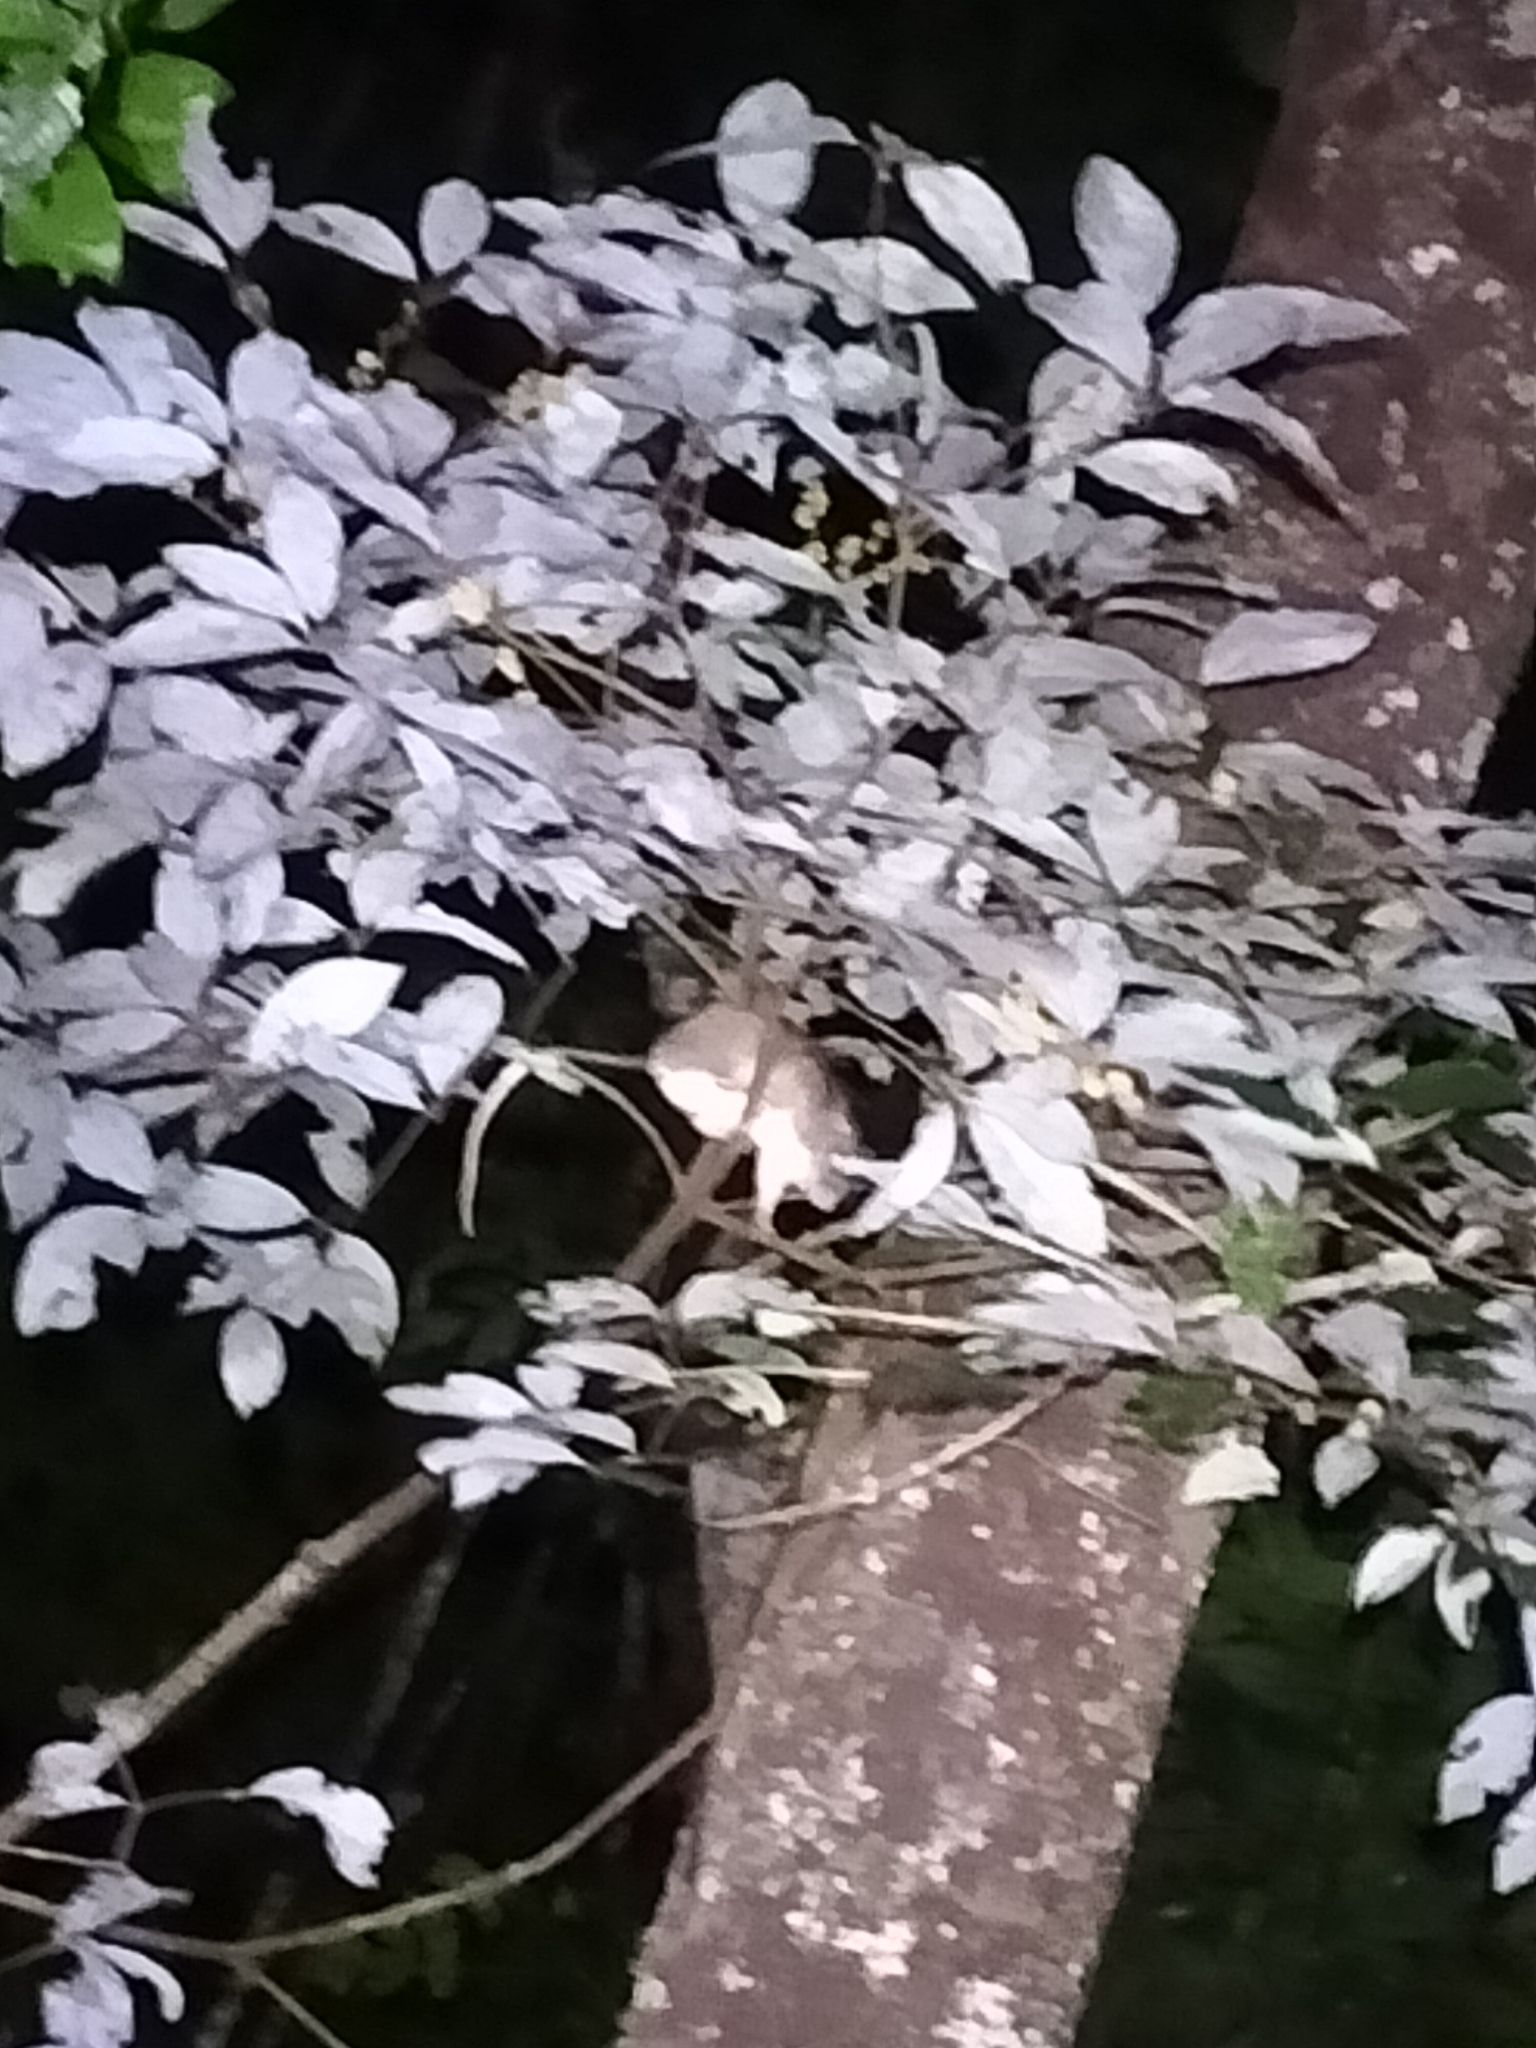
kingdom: Animalia
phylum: Chordata
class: Mammalia
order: Rodentia
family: Muridae
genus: Uromys
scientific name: Uromys caudimaculatus
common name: Giant white-tailed uromys
